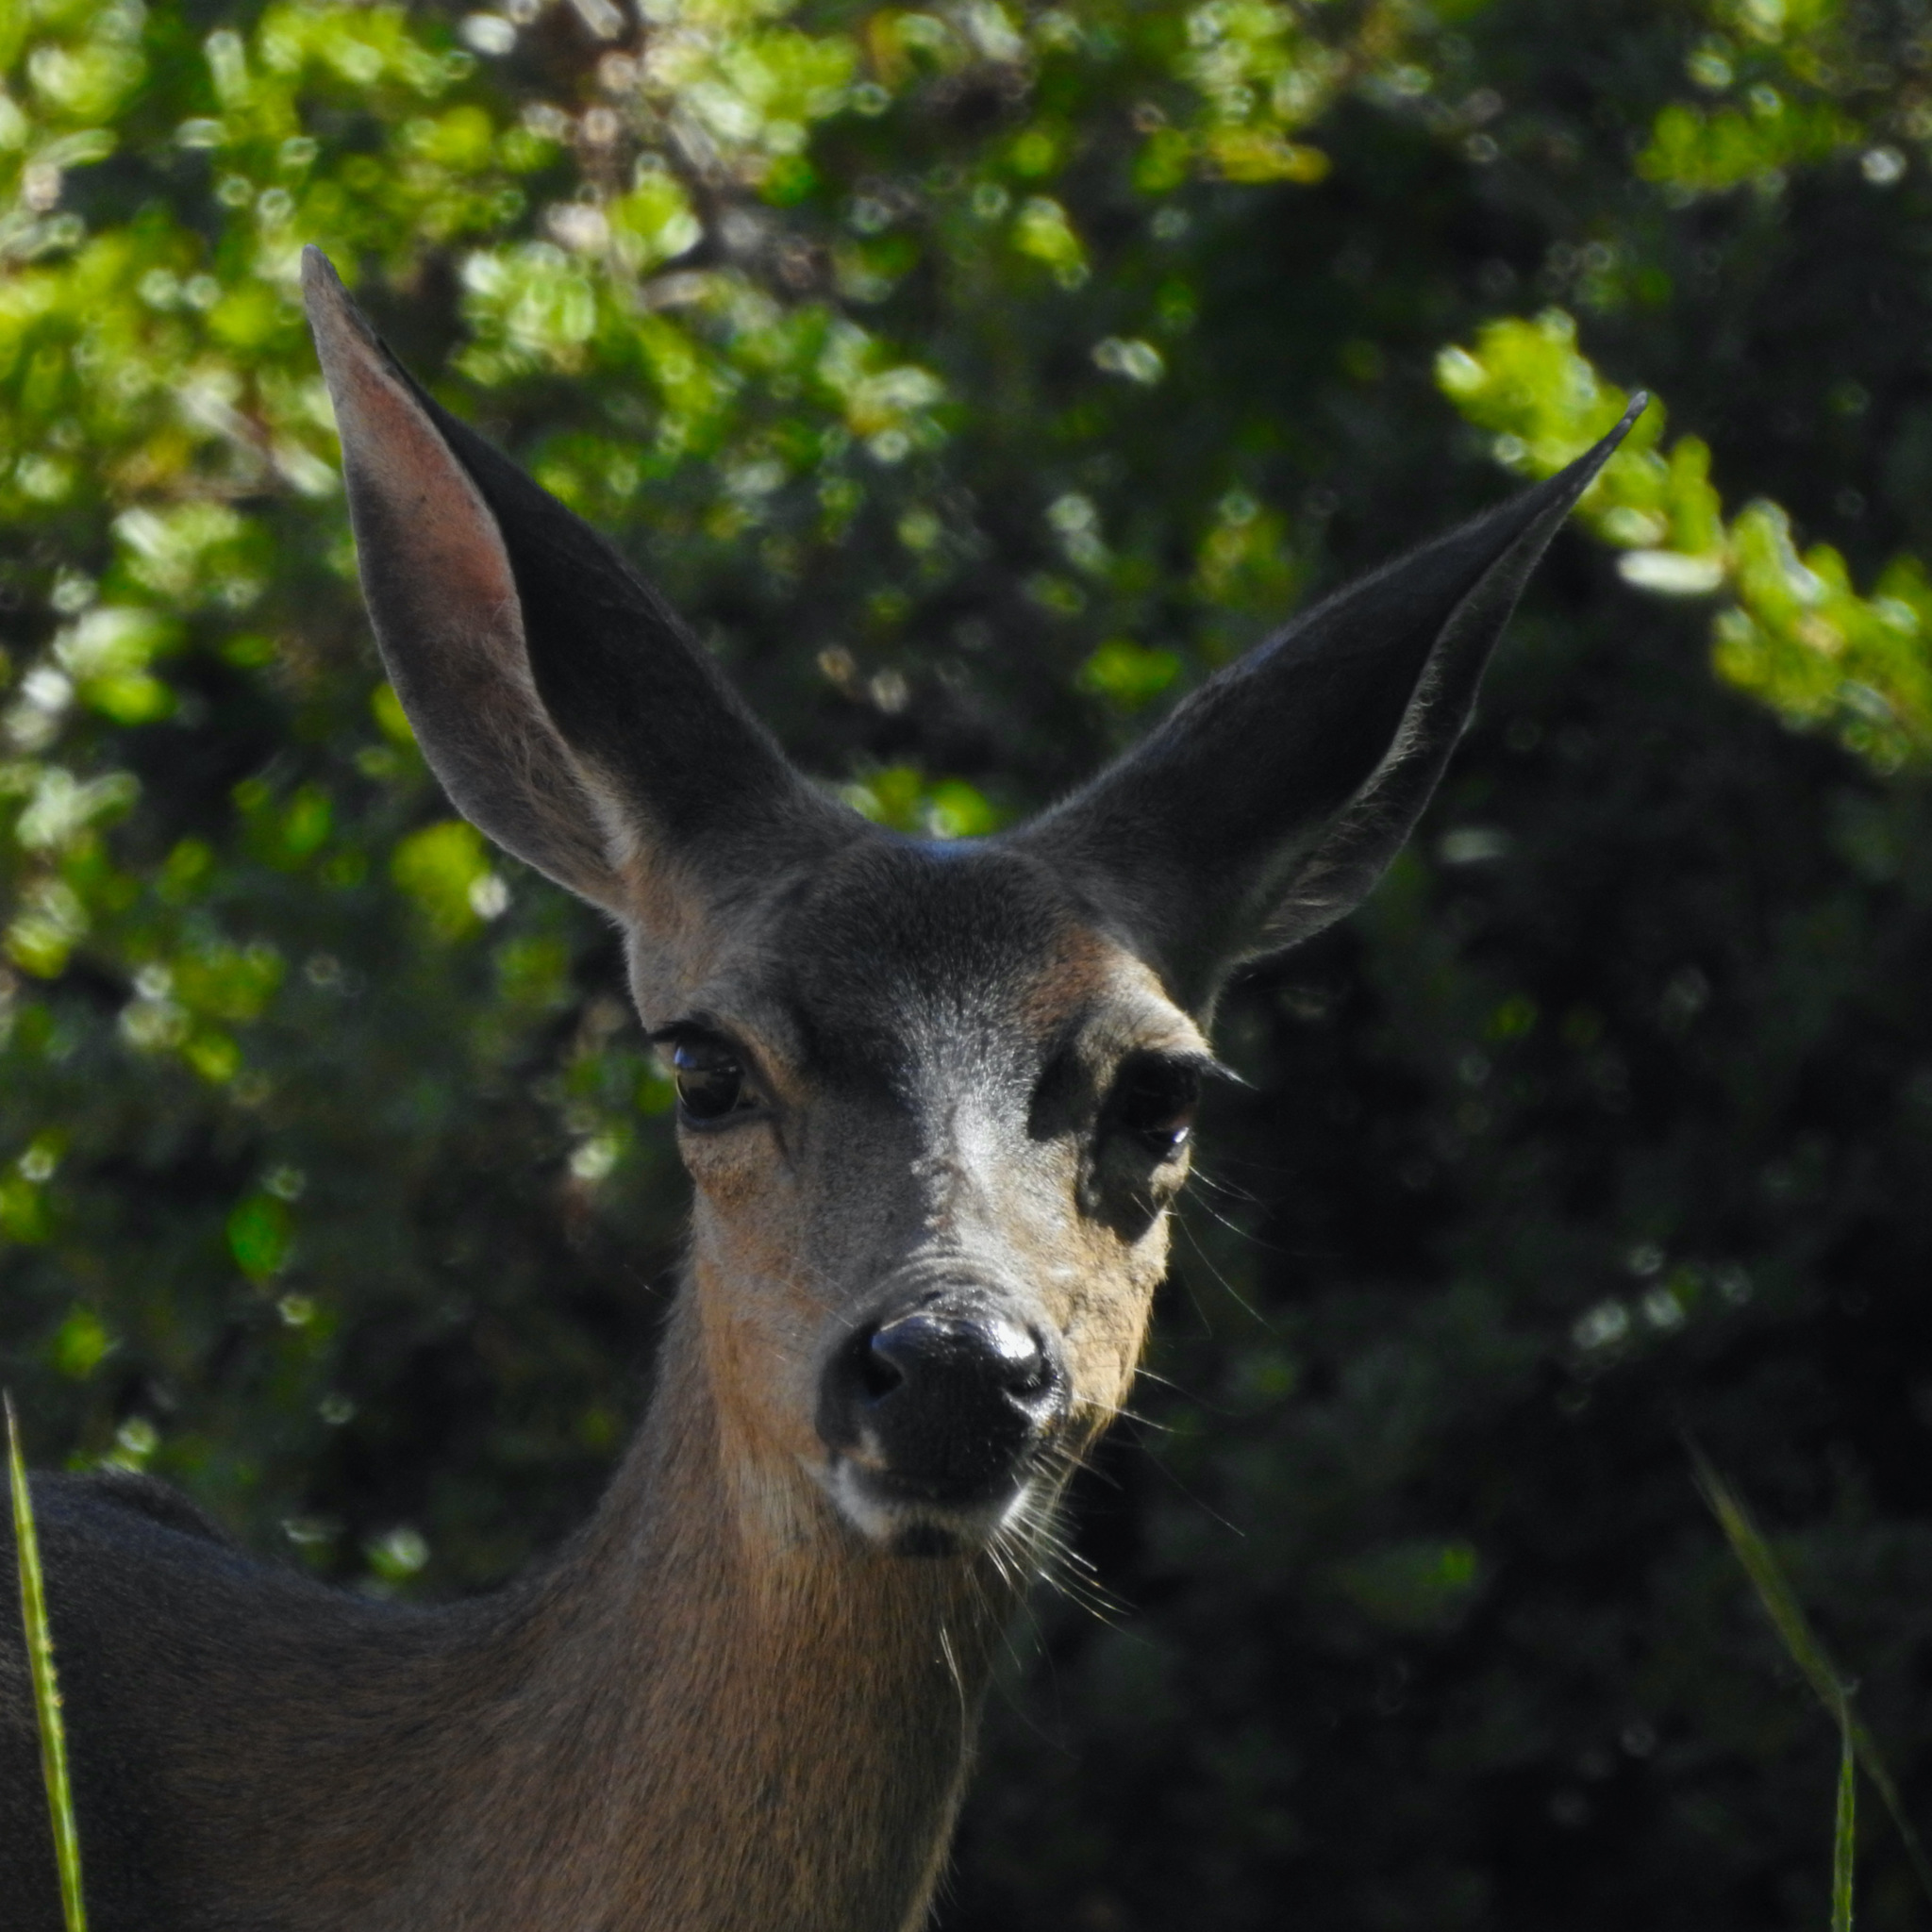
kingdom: Animalia
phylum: Chordata
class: Mammalia
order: Artiodactyla
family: Cervidae
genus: Odocoileus
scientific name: Odocoileus hemionus
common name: Mule deer
